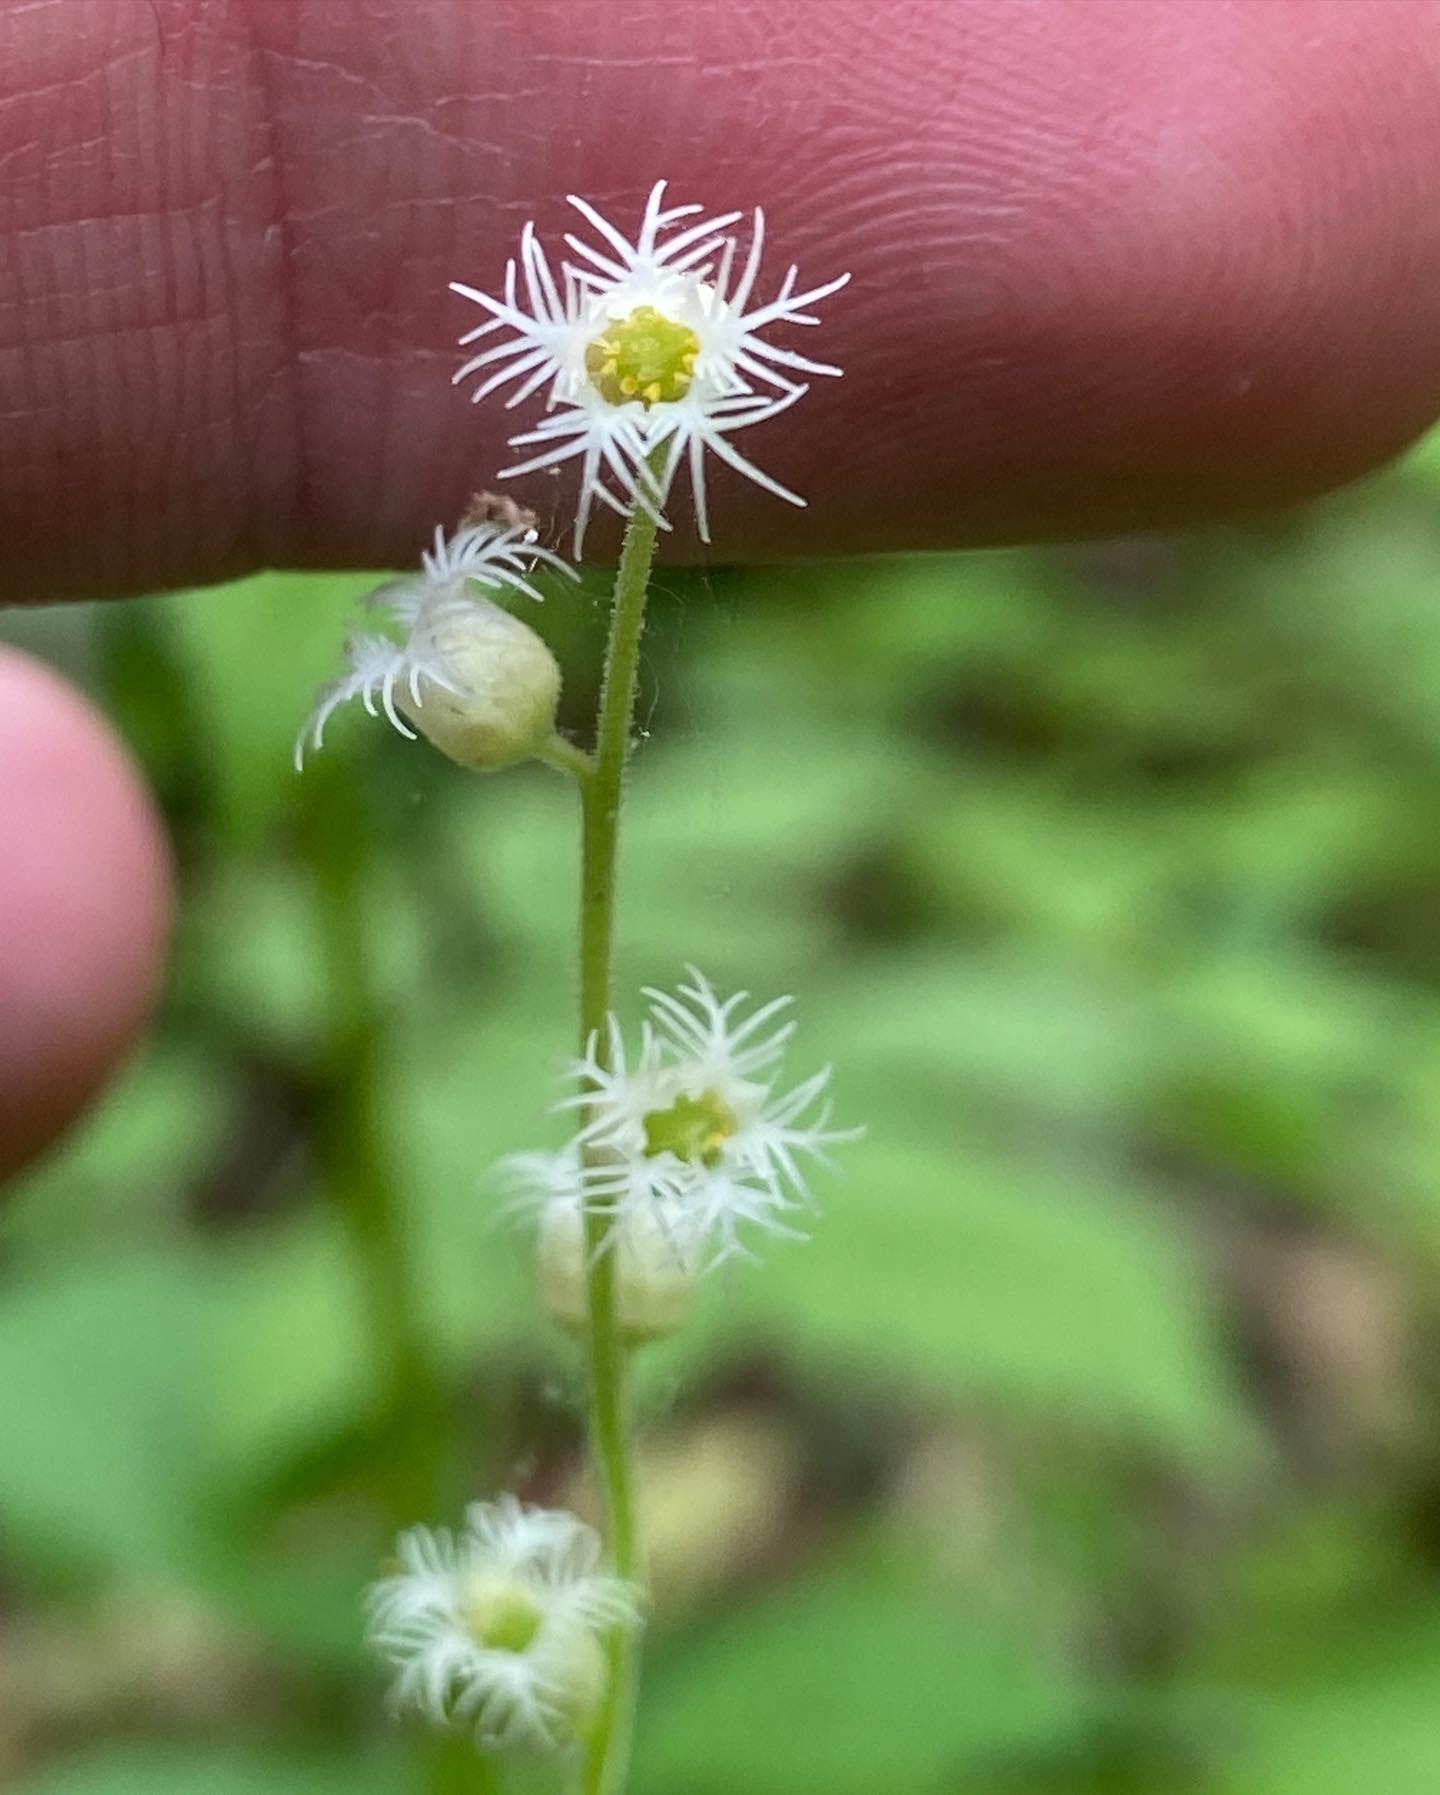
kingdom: Plantae
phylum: Tracheophyta
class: Magnoliopsida
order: Saxifragales
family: Saxifragaceae
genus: Mitella
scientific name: Mitella diphylla
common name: Coolwort
